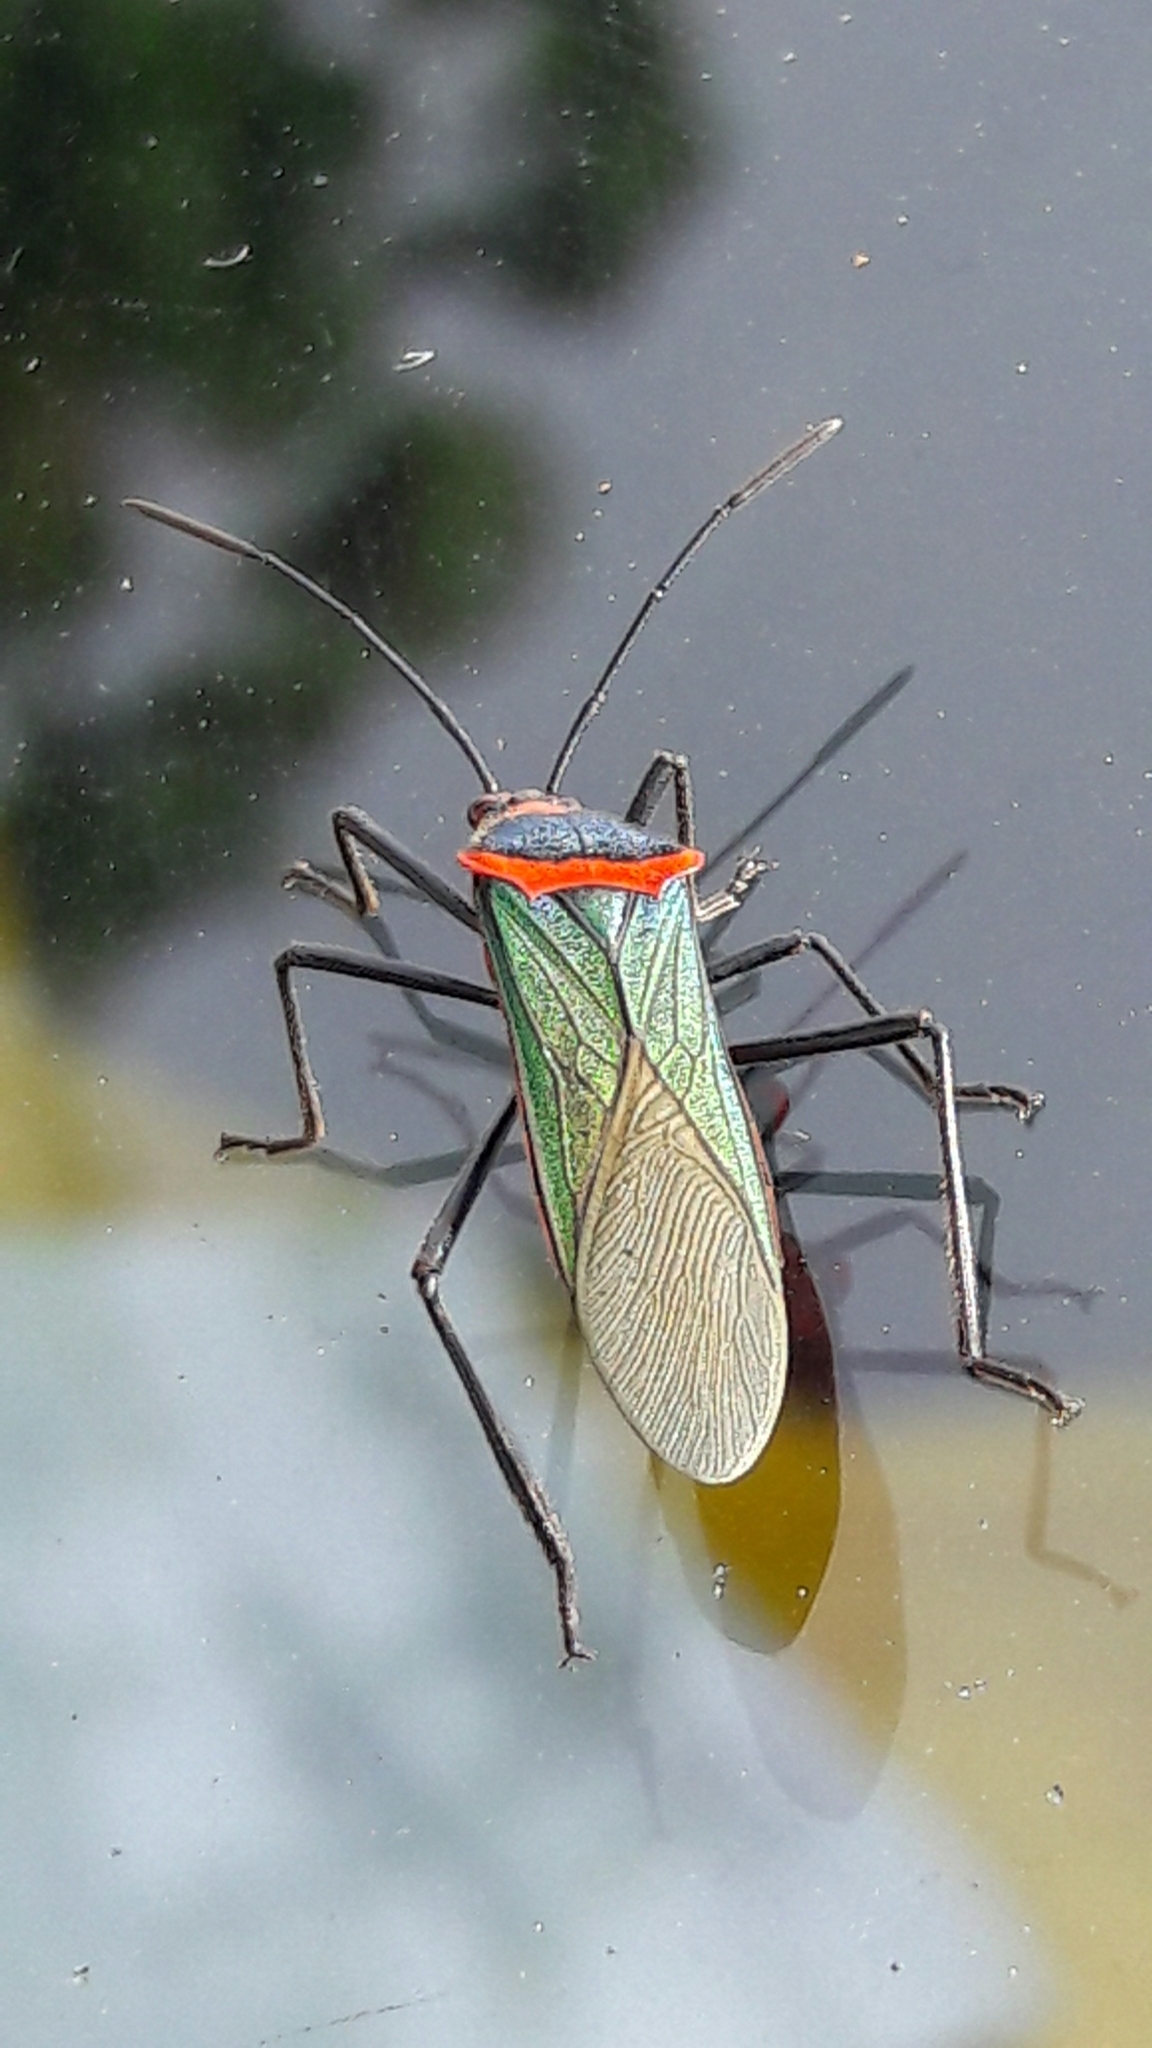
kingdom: Animalia
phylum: Arthropoda
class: Insecta
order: Hemiptera
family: Coreidae
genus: Sphictyrtus
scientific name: Sphictyrtus chrysis
